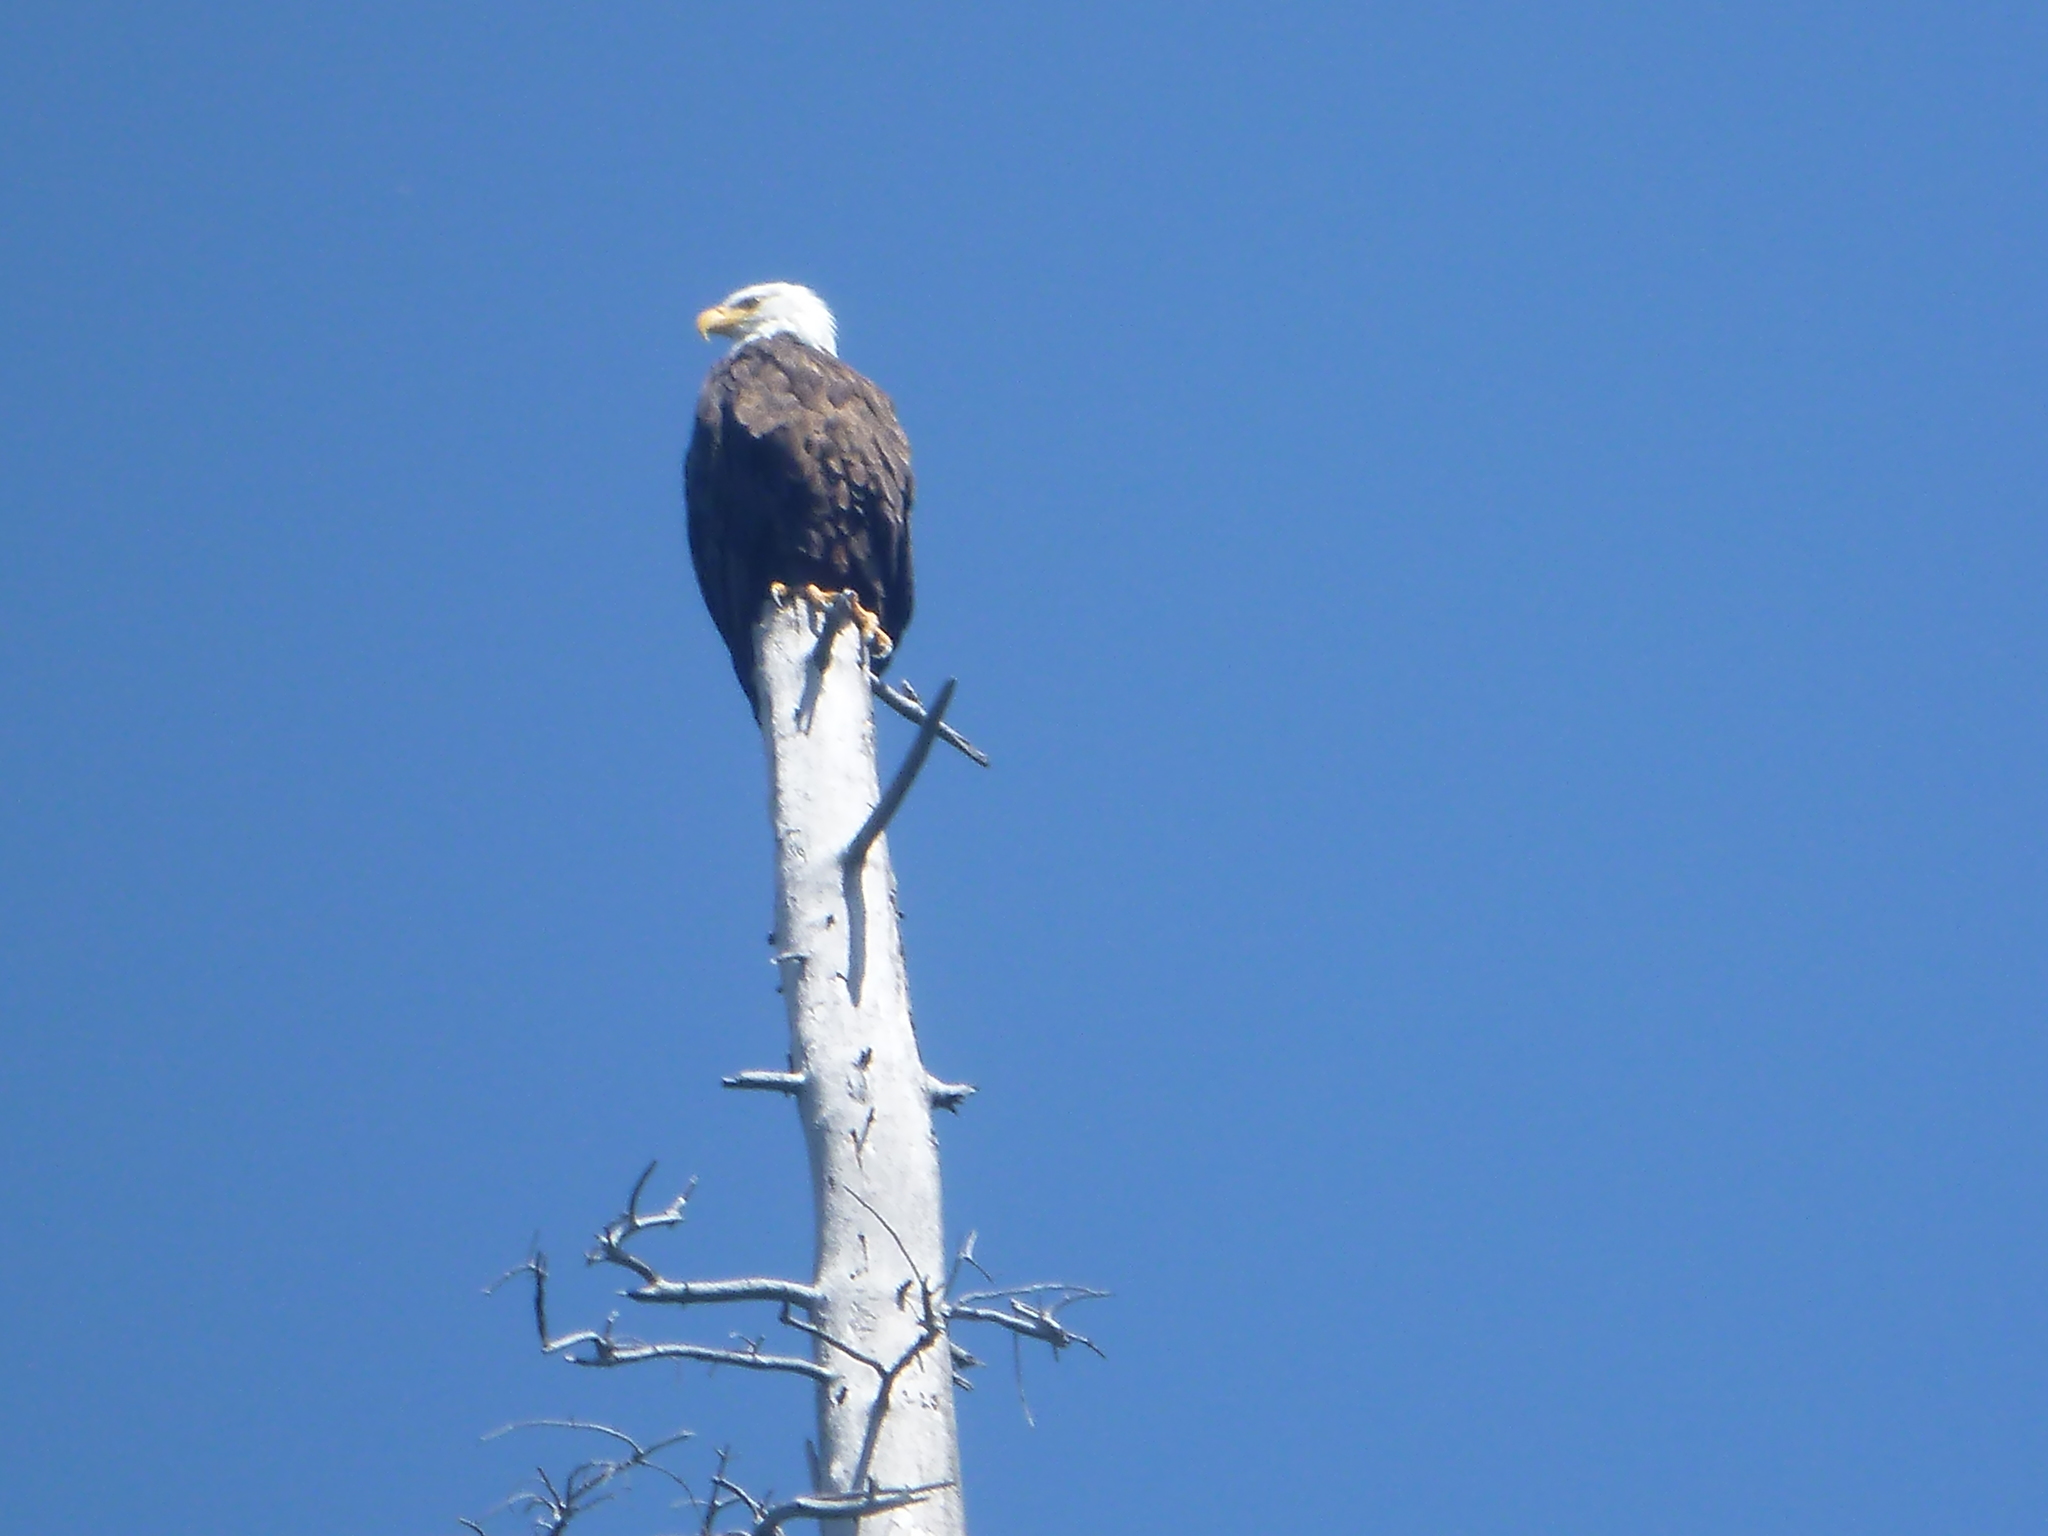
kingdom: Animalia
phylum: Chordata
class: Aves
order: Accipitriformes
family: Accipitridae
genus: Haliaeetus
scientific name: Haliaeetus leucocephalus
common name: Bald eagle
